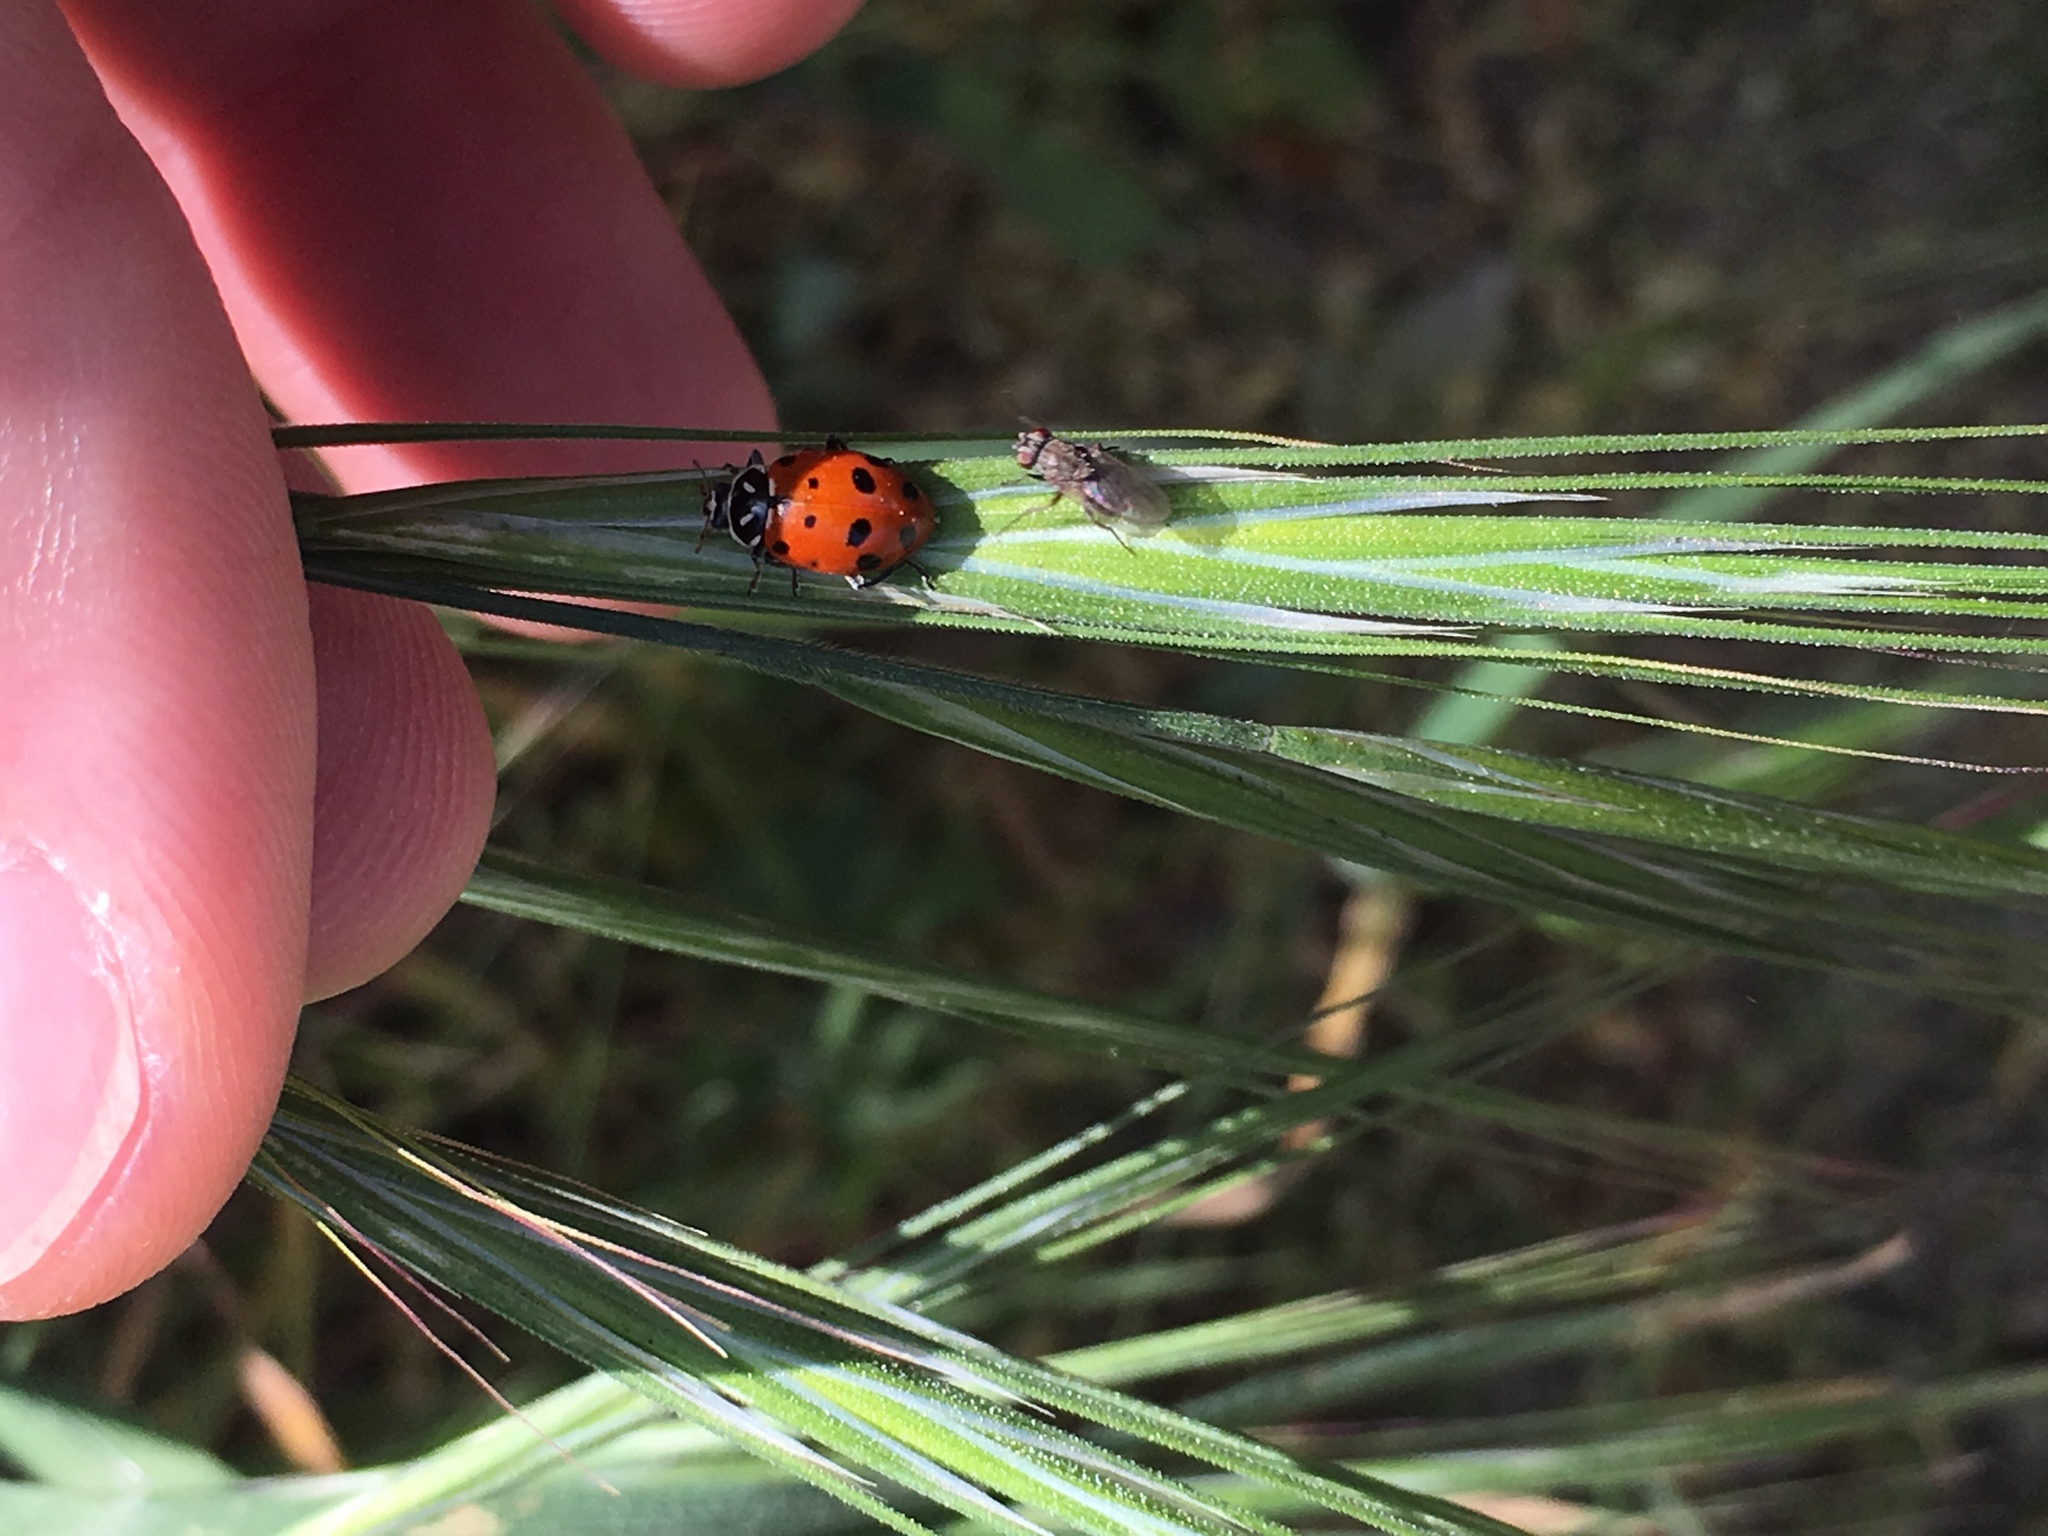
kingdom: Animalia
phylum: Arthropoda
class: Insecta
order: Coleoptera
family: Coccinellidae
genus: Hippodamia
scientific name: Hippodamia convergens
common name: Convergent lady beetle
